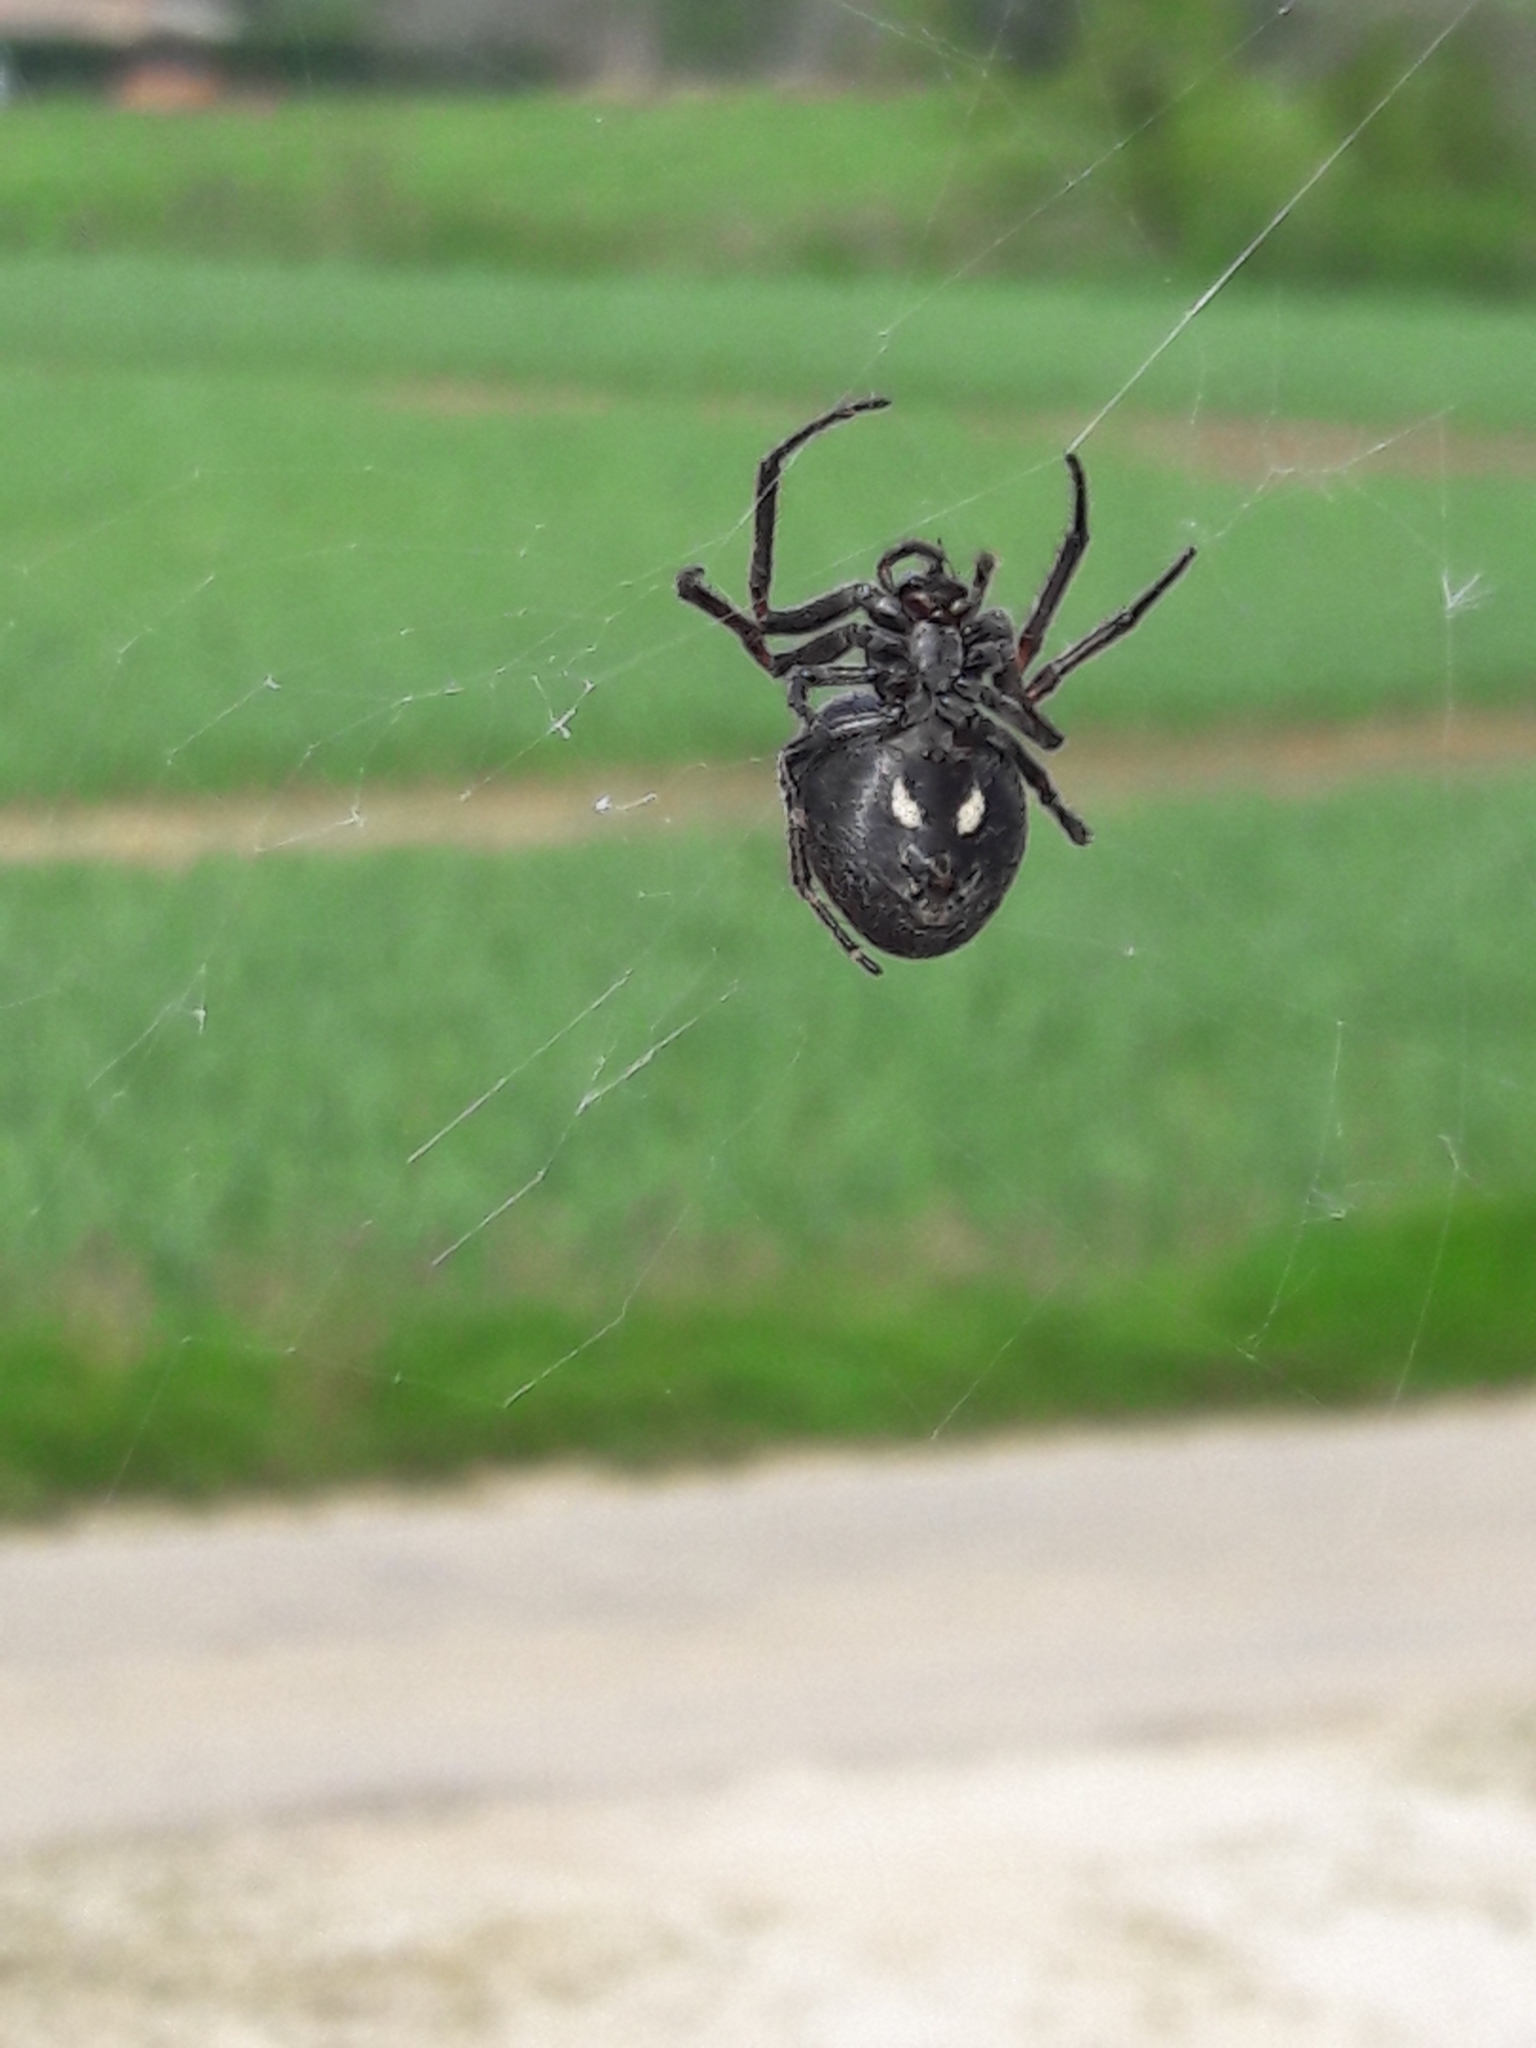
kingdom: Animalia
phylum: Arthropoda
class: Arachnida
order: Araneae
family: Araneidae
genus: Nuctenea
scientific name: Nuctenea umbratica
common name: Toad spider
